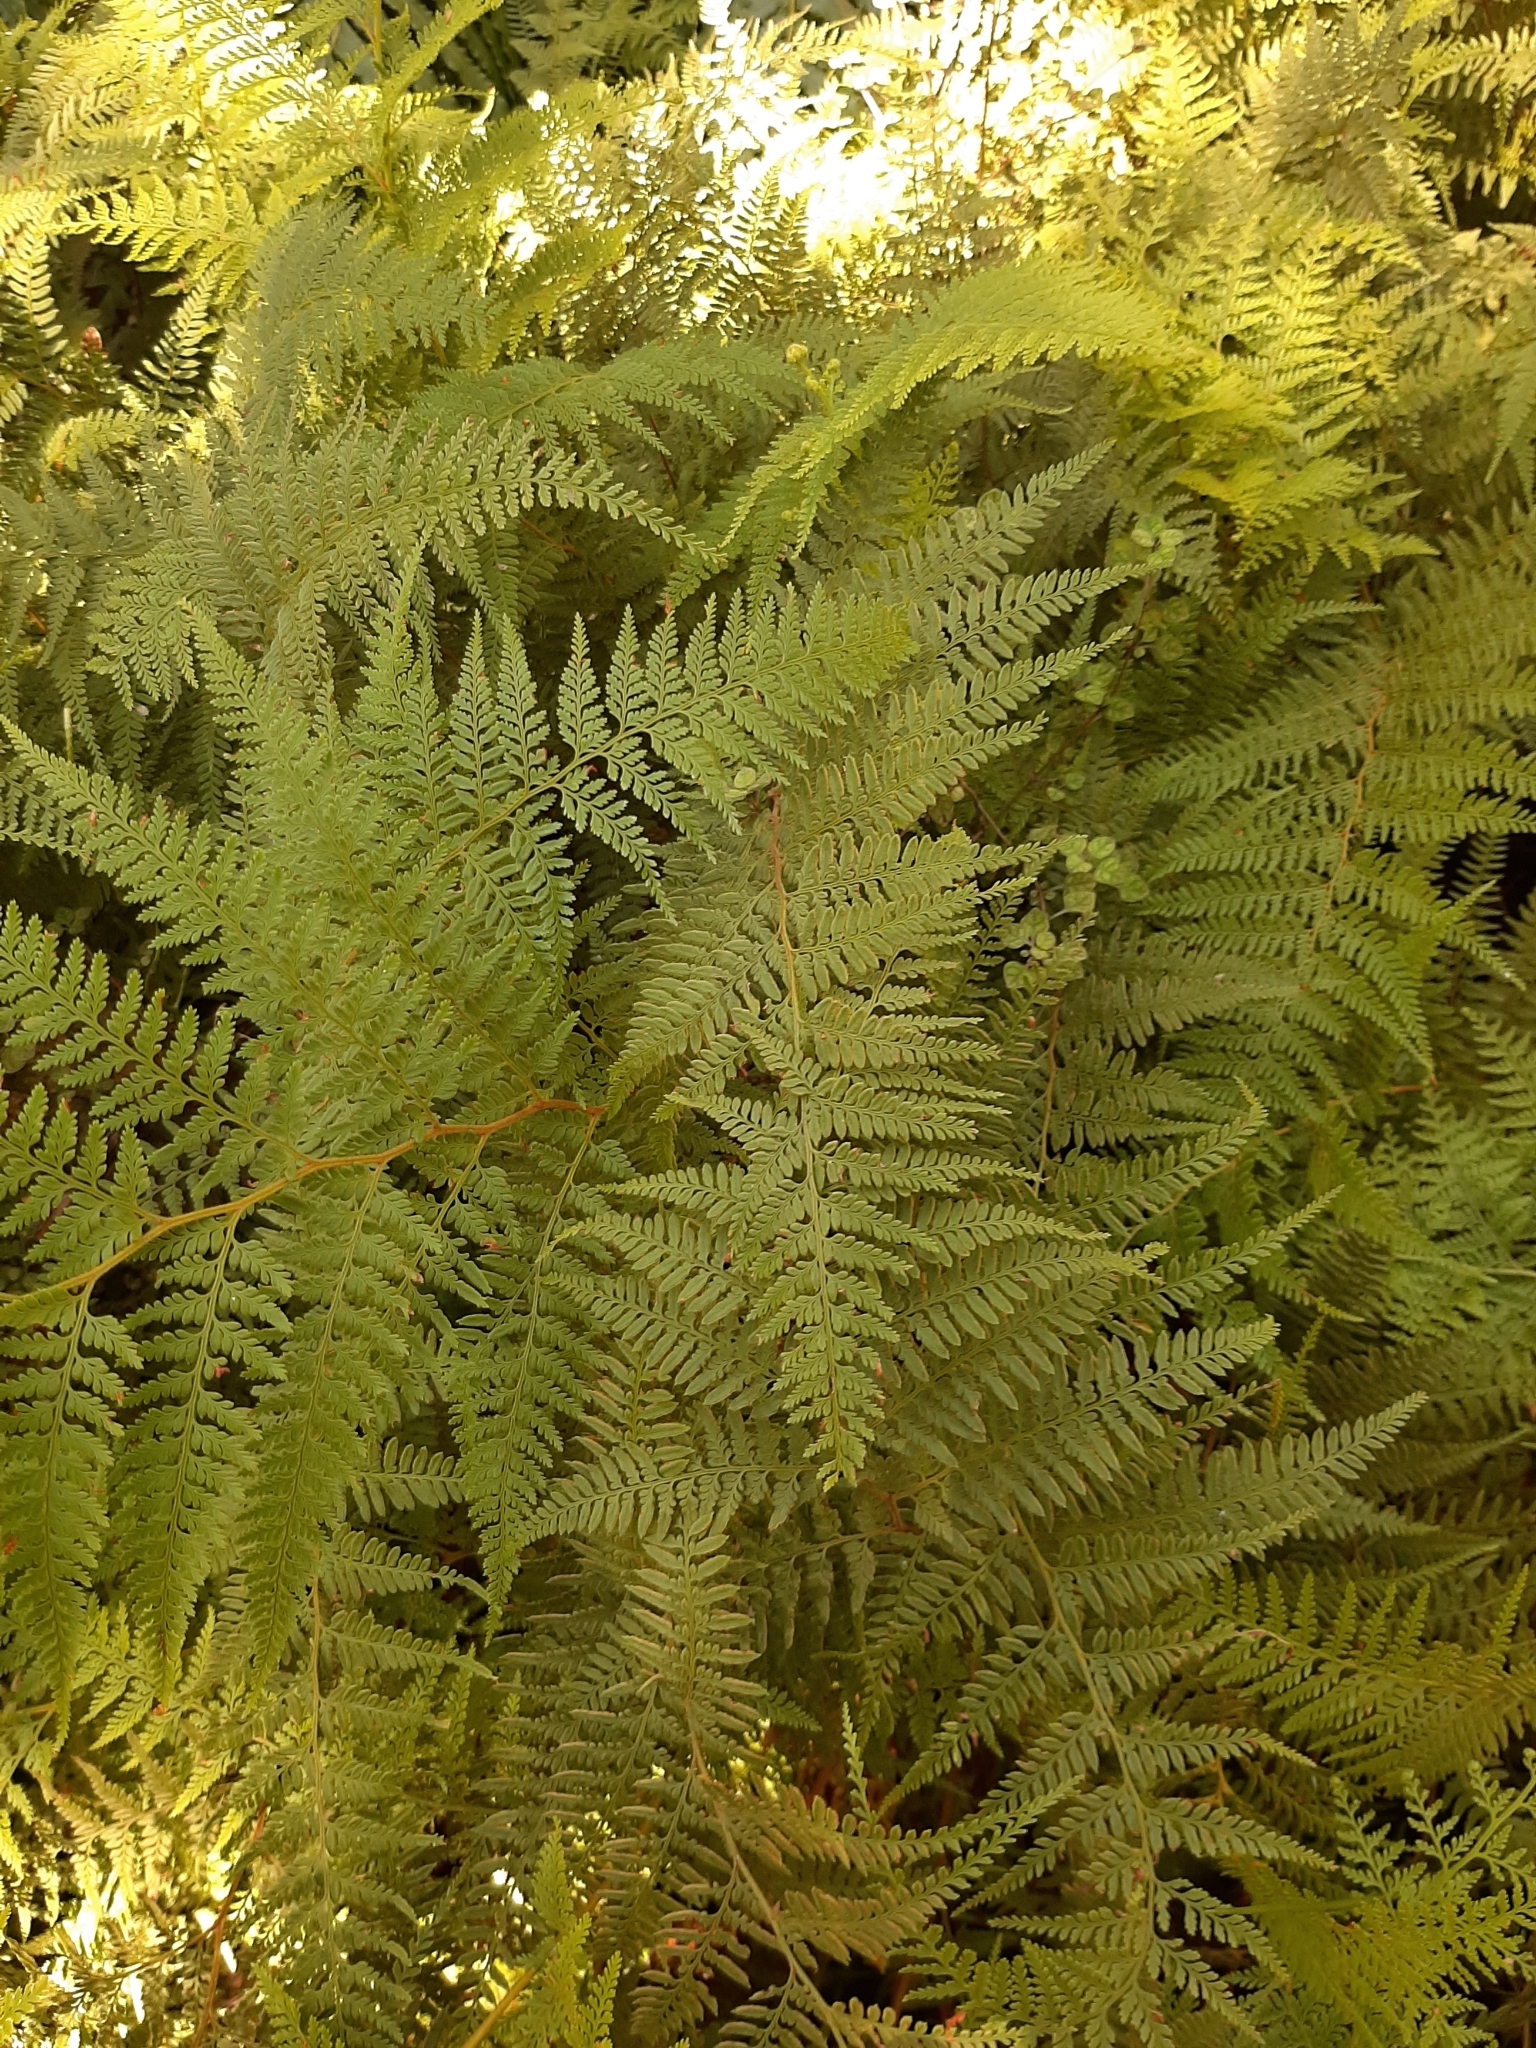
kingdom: Plantae
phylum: Tracheophyta
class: Polypodiopsida
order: Polypodiales
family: Dennstaedtiaceae
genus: Paesia
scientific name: Paesia scaberula
